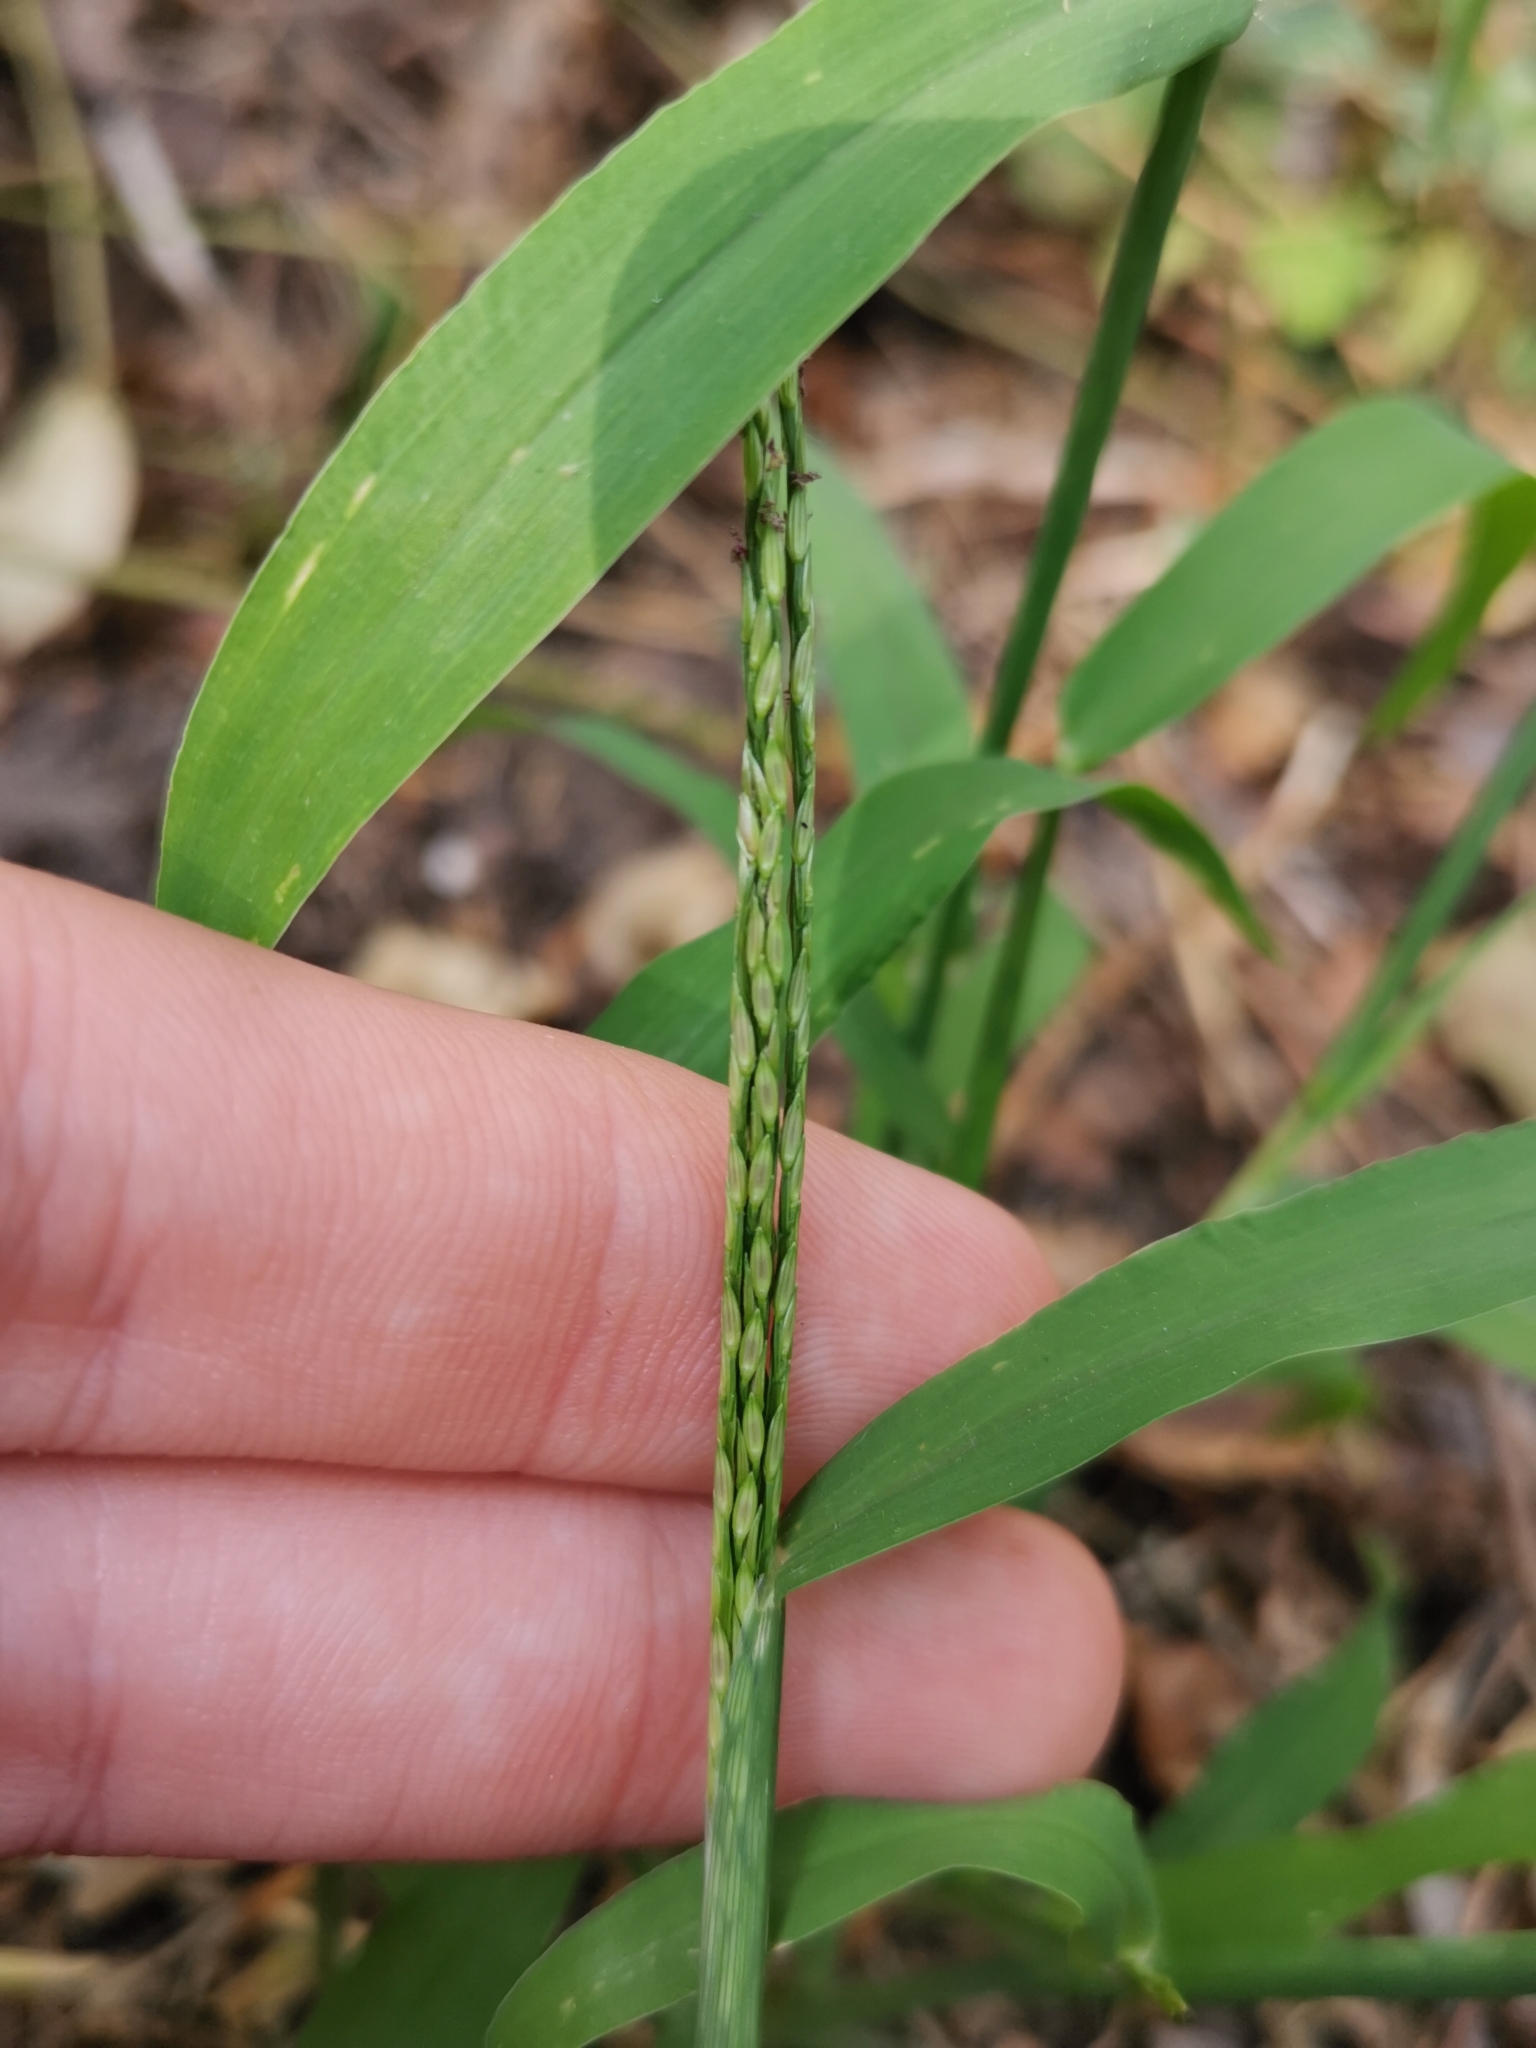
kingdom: Plantae
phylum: Tracheophyta
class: Liliopsida
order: Poales
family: Poaceae
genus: Digitaria
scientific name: Digitaria sanguinalis
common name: Hairy crabgrass
